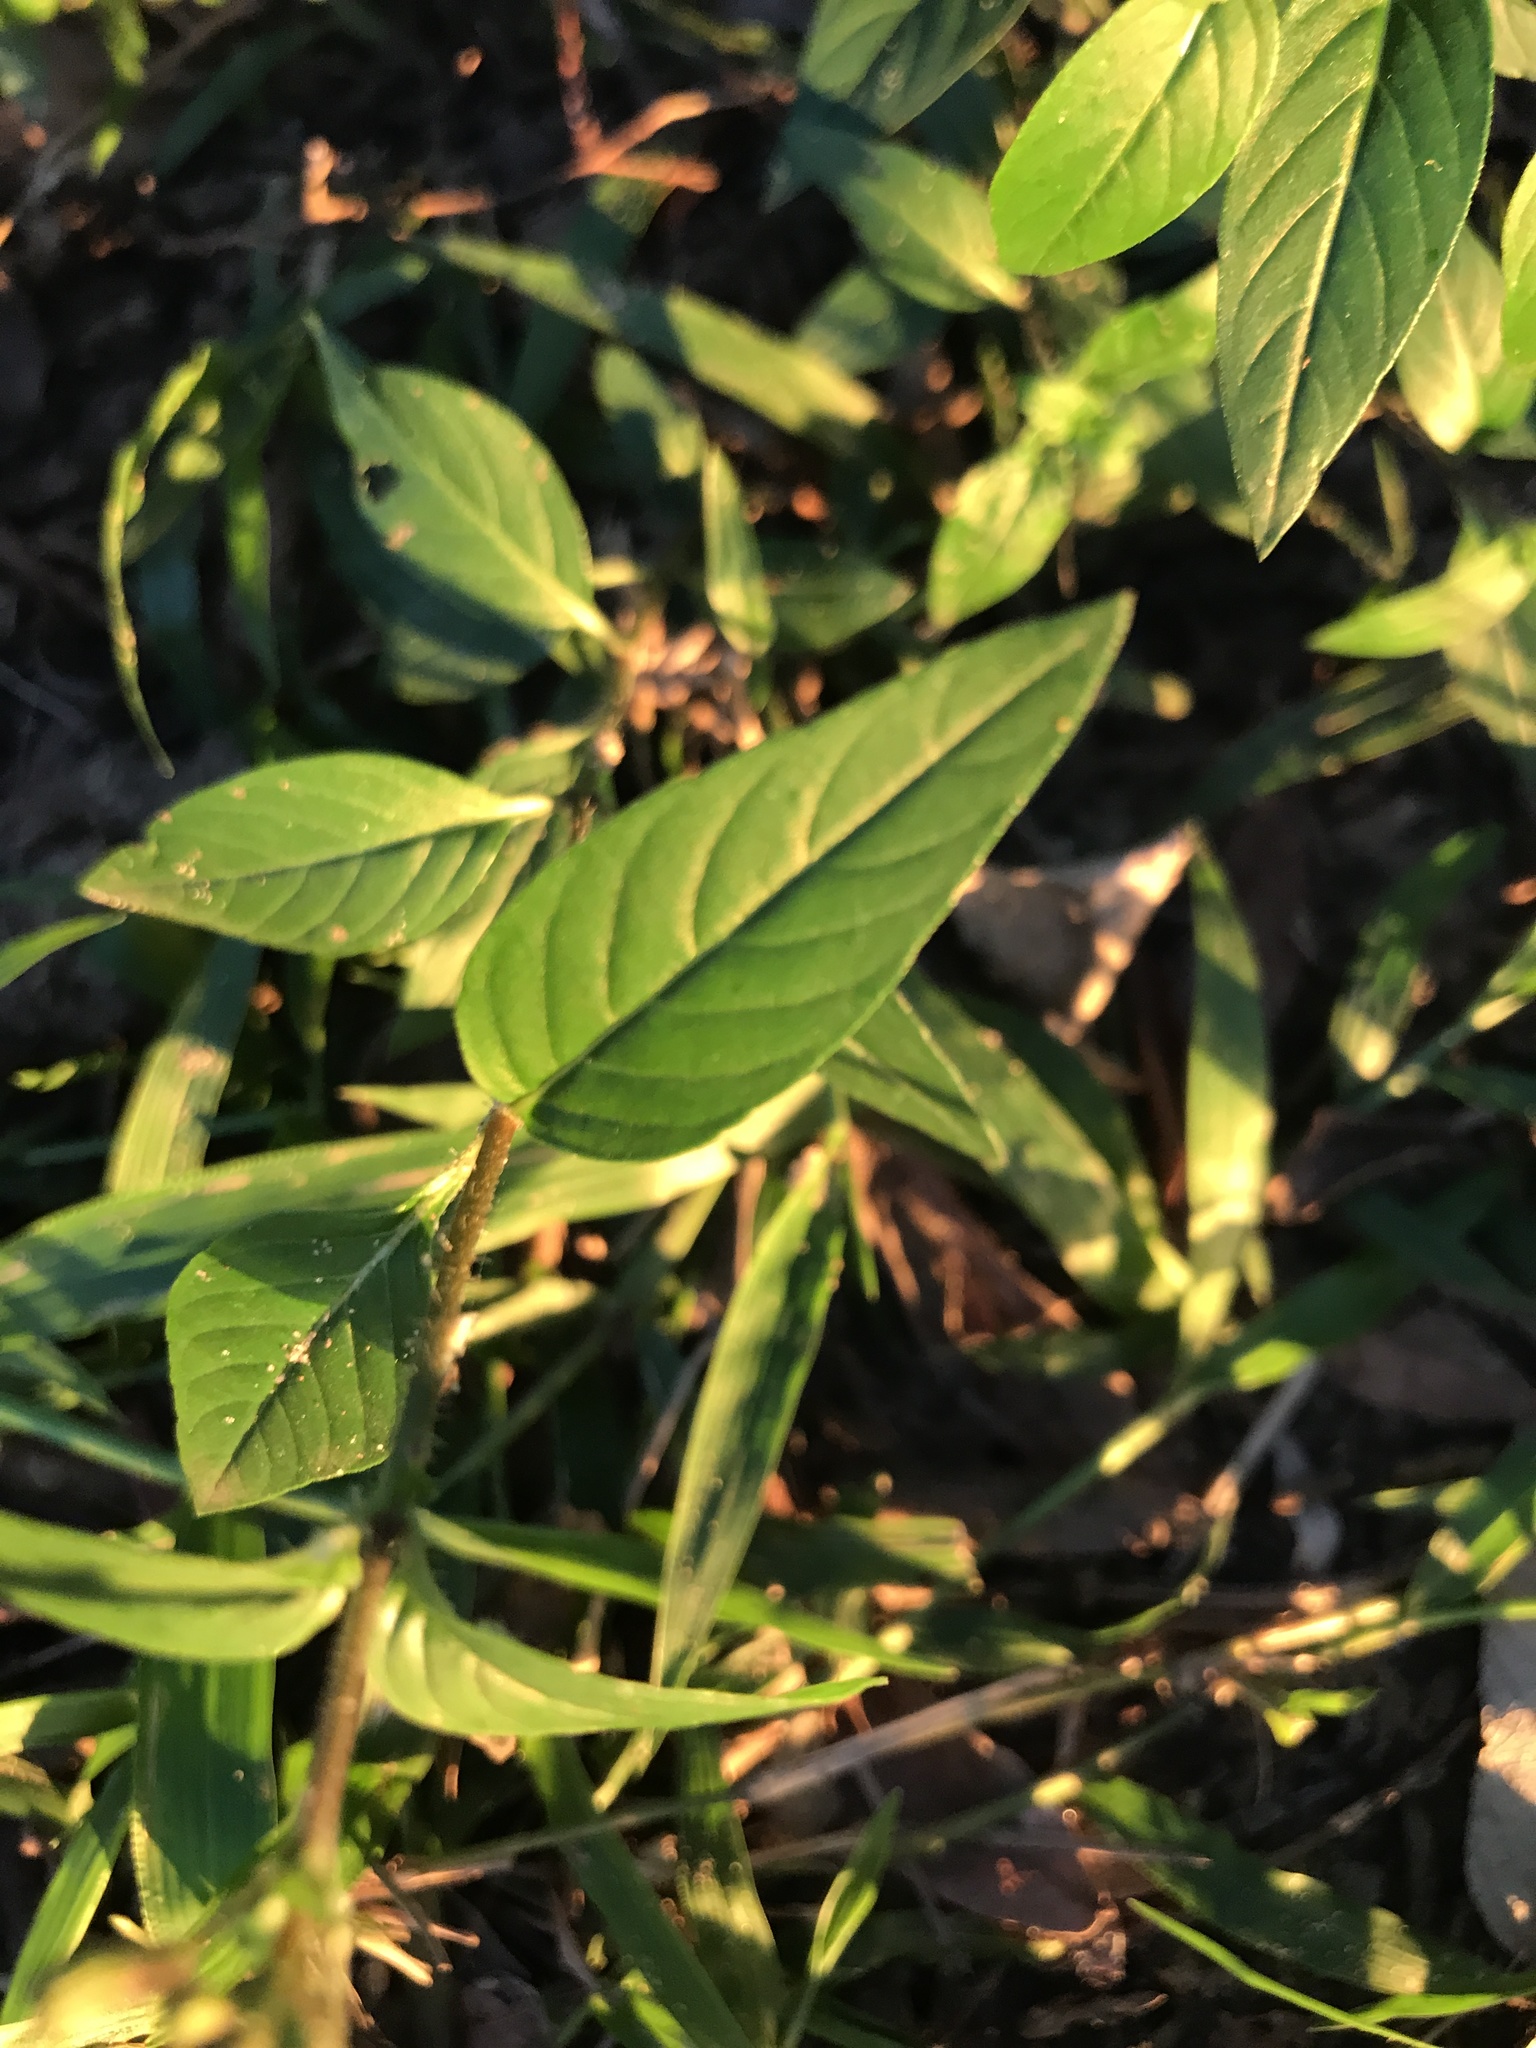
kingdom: Plantae
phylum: Tracheophyta
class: Magnoliopsida
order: Myrtales
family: Lythraceae
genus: Cuphea
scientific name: Cuphea racemosa
